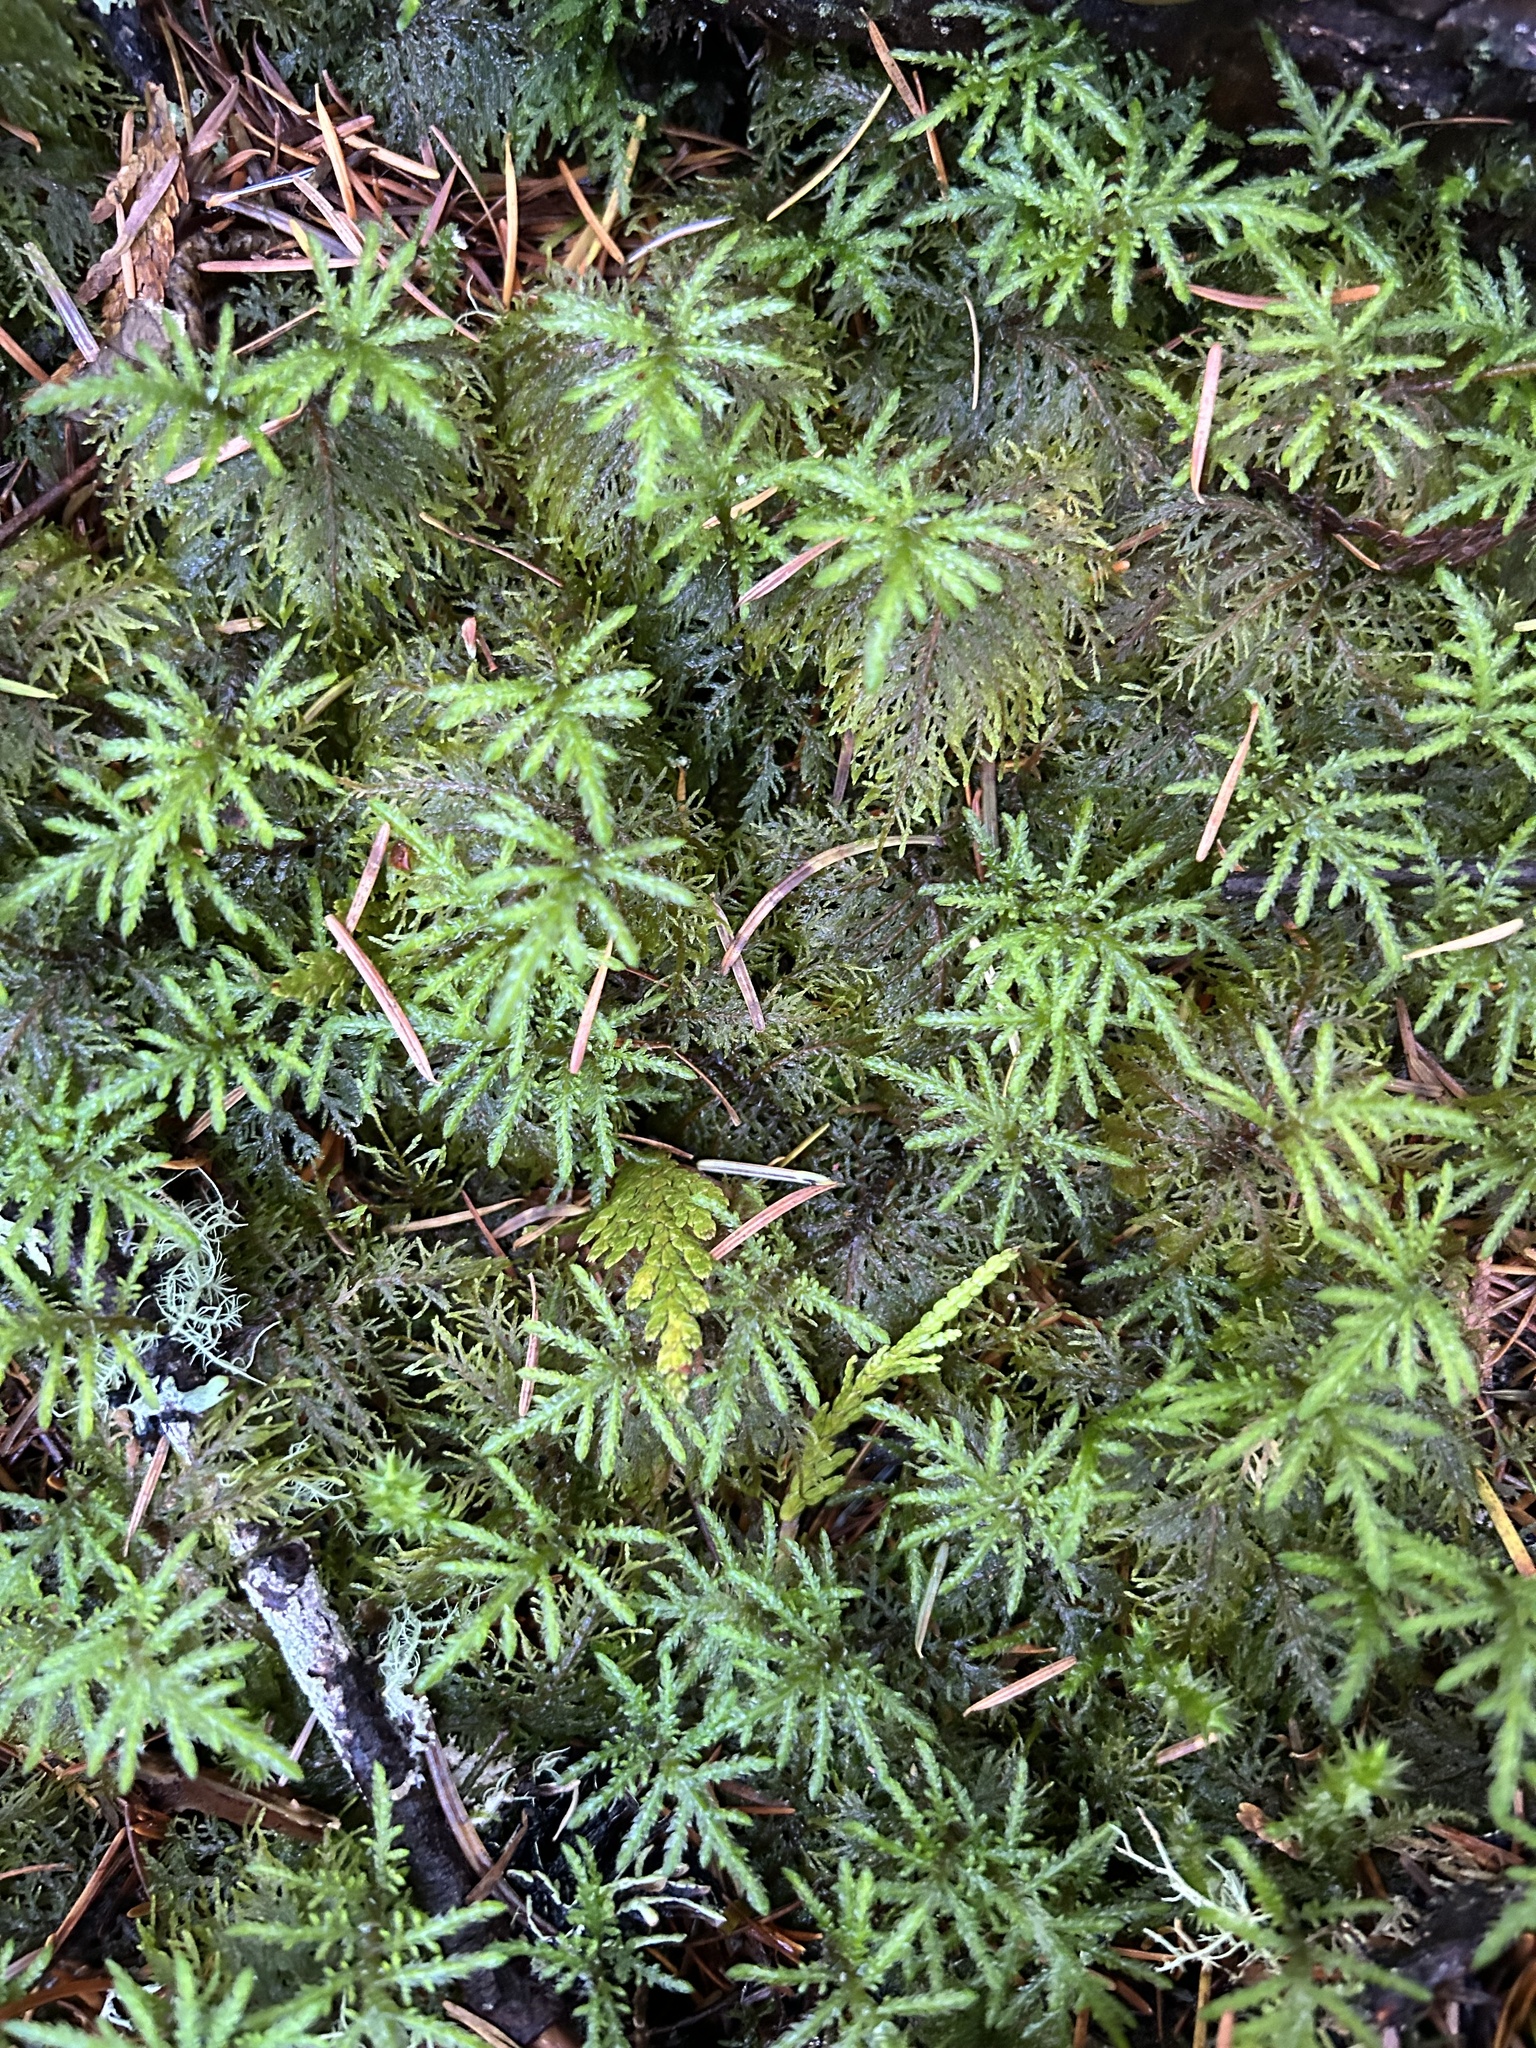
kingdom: Plantae
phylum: Bryophyta
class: Bryopsida
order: Hypnales
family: Hylocomiaceae
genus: Hylocomium
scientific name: Hylocomium splendens
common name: Stairstep moss
